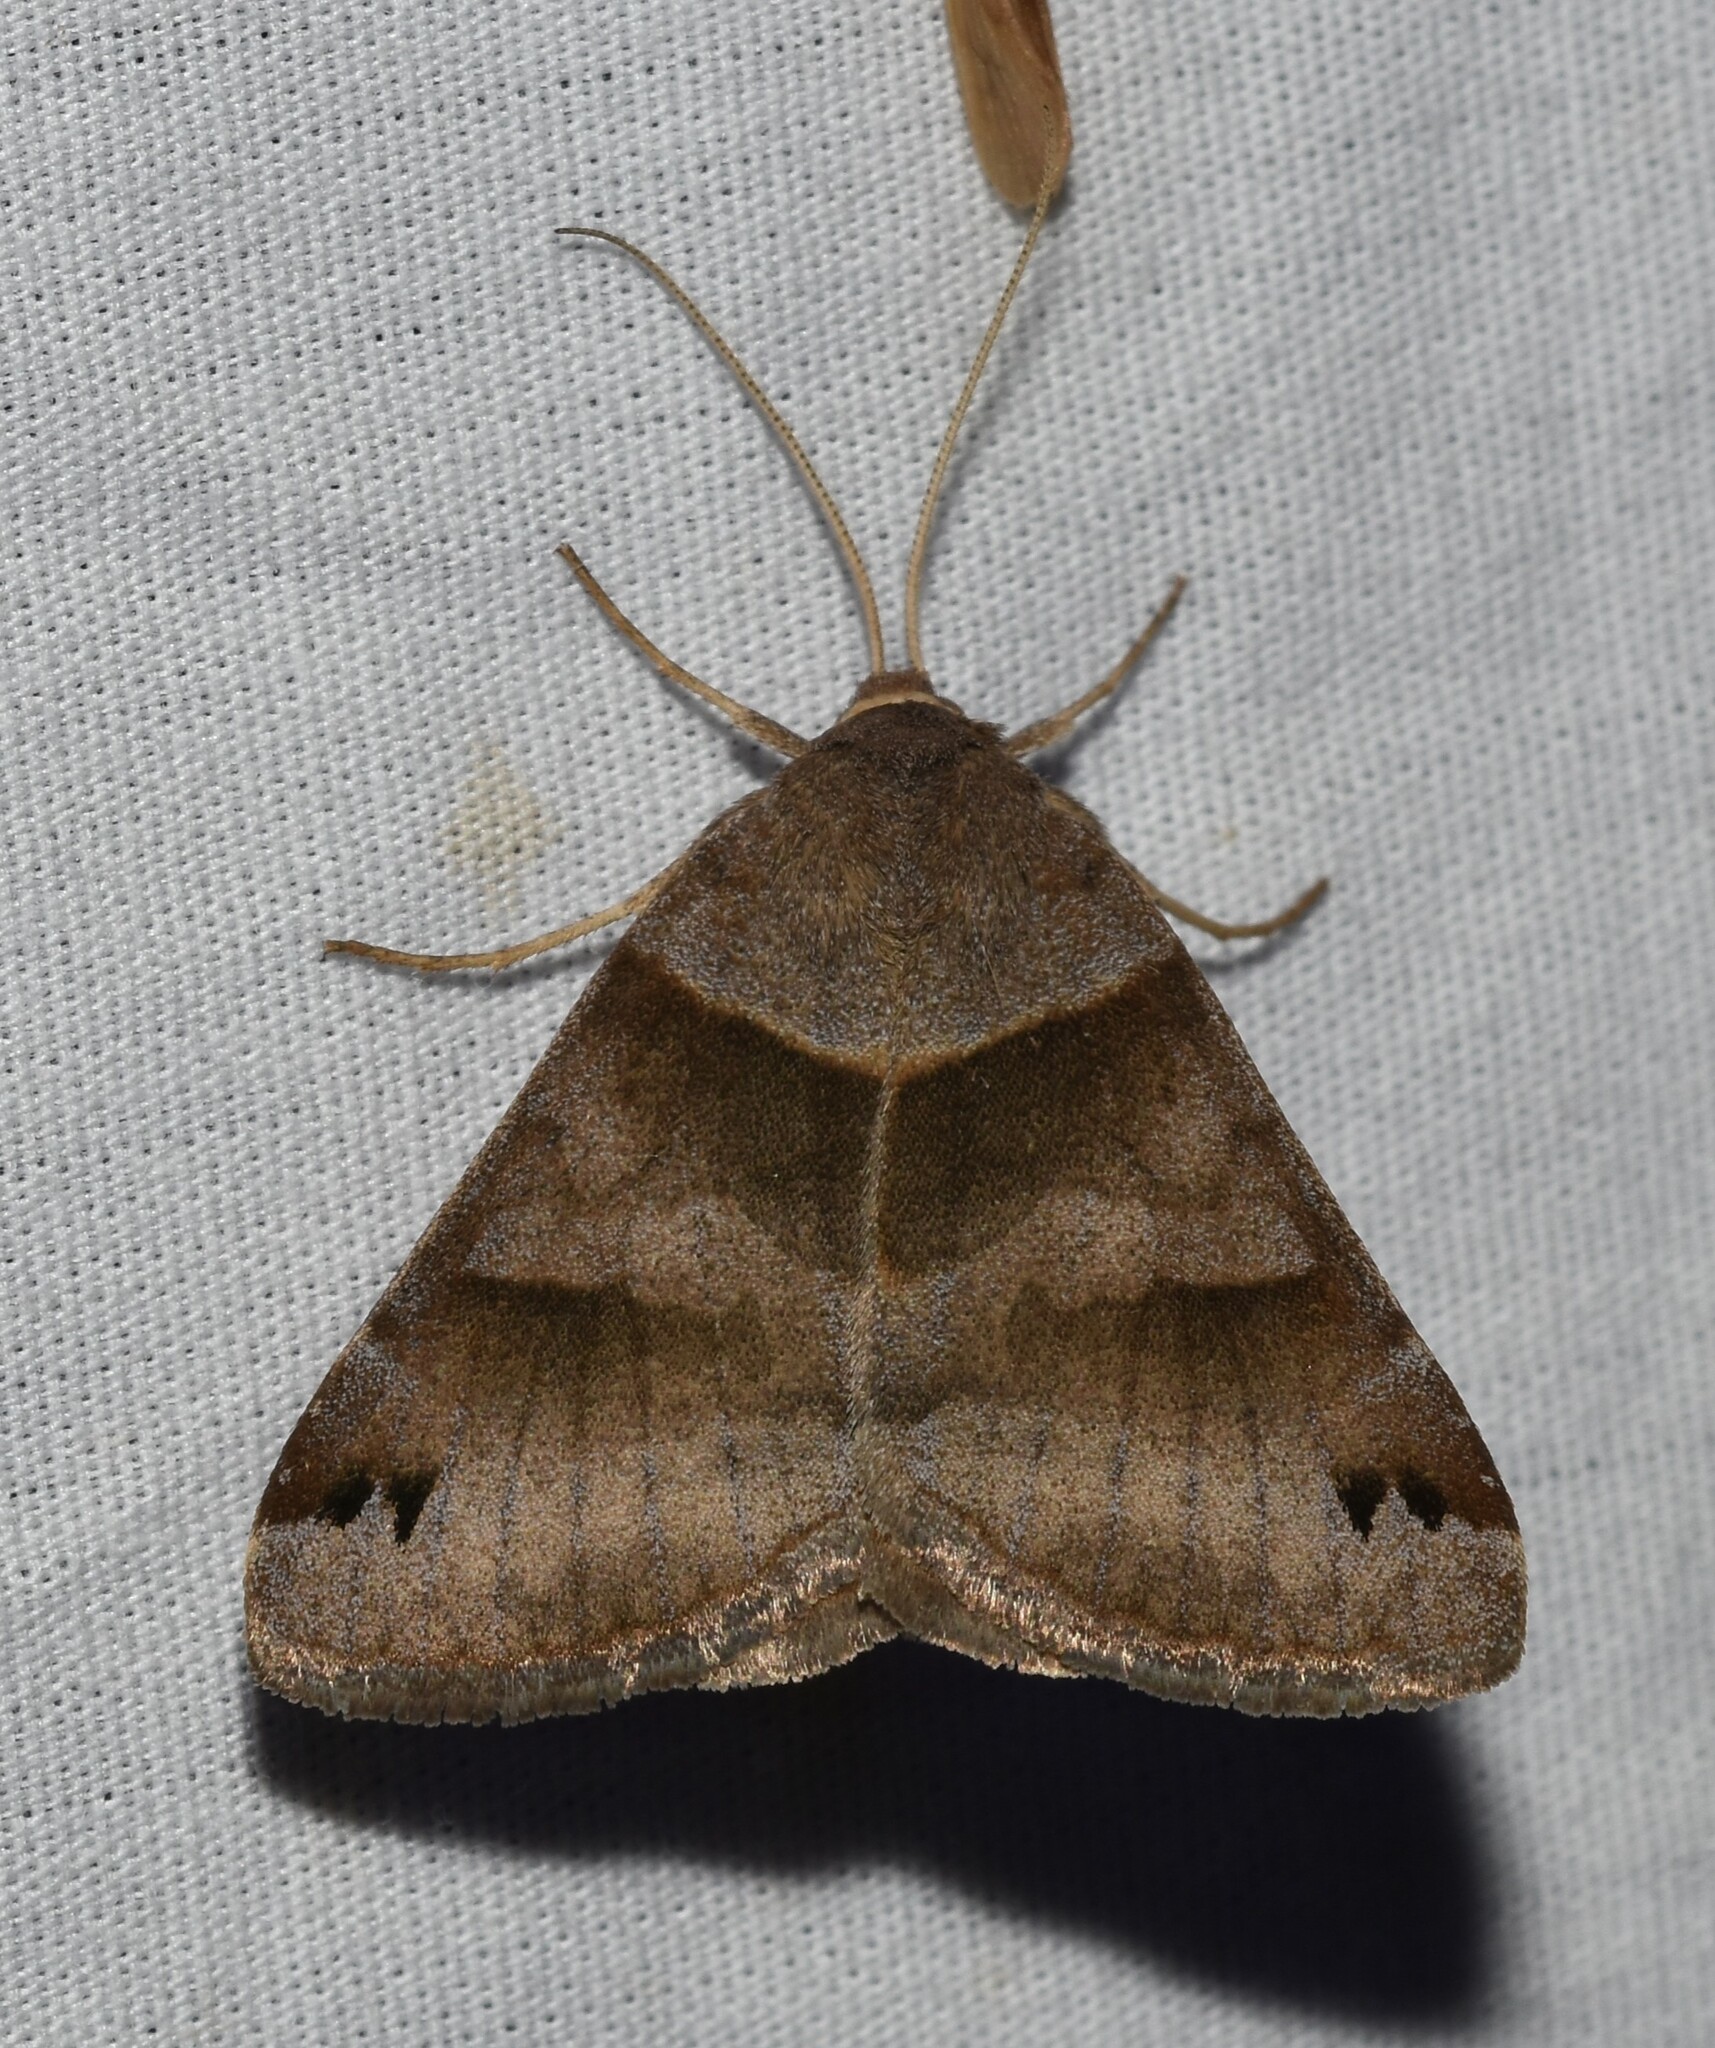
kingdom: Animalia
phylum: Arthropoda
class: Insecta
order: Lepidoptera
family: Erebidae
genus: Caenurgina
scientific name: Caenurgina crassiuscula
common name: Double-barred
